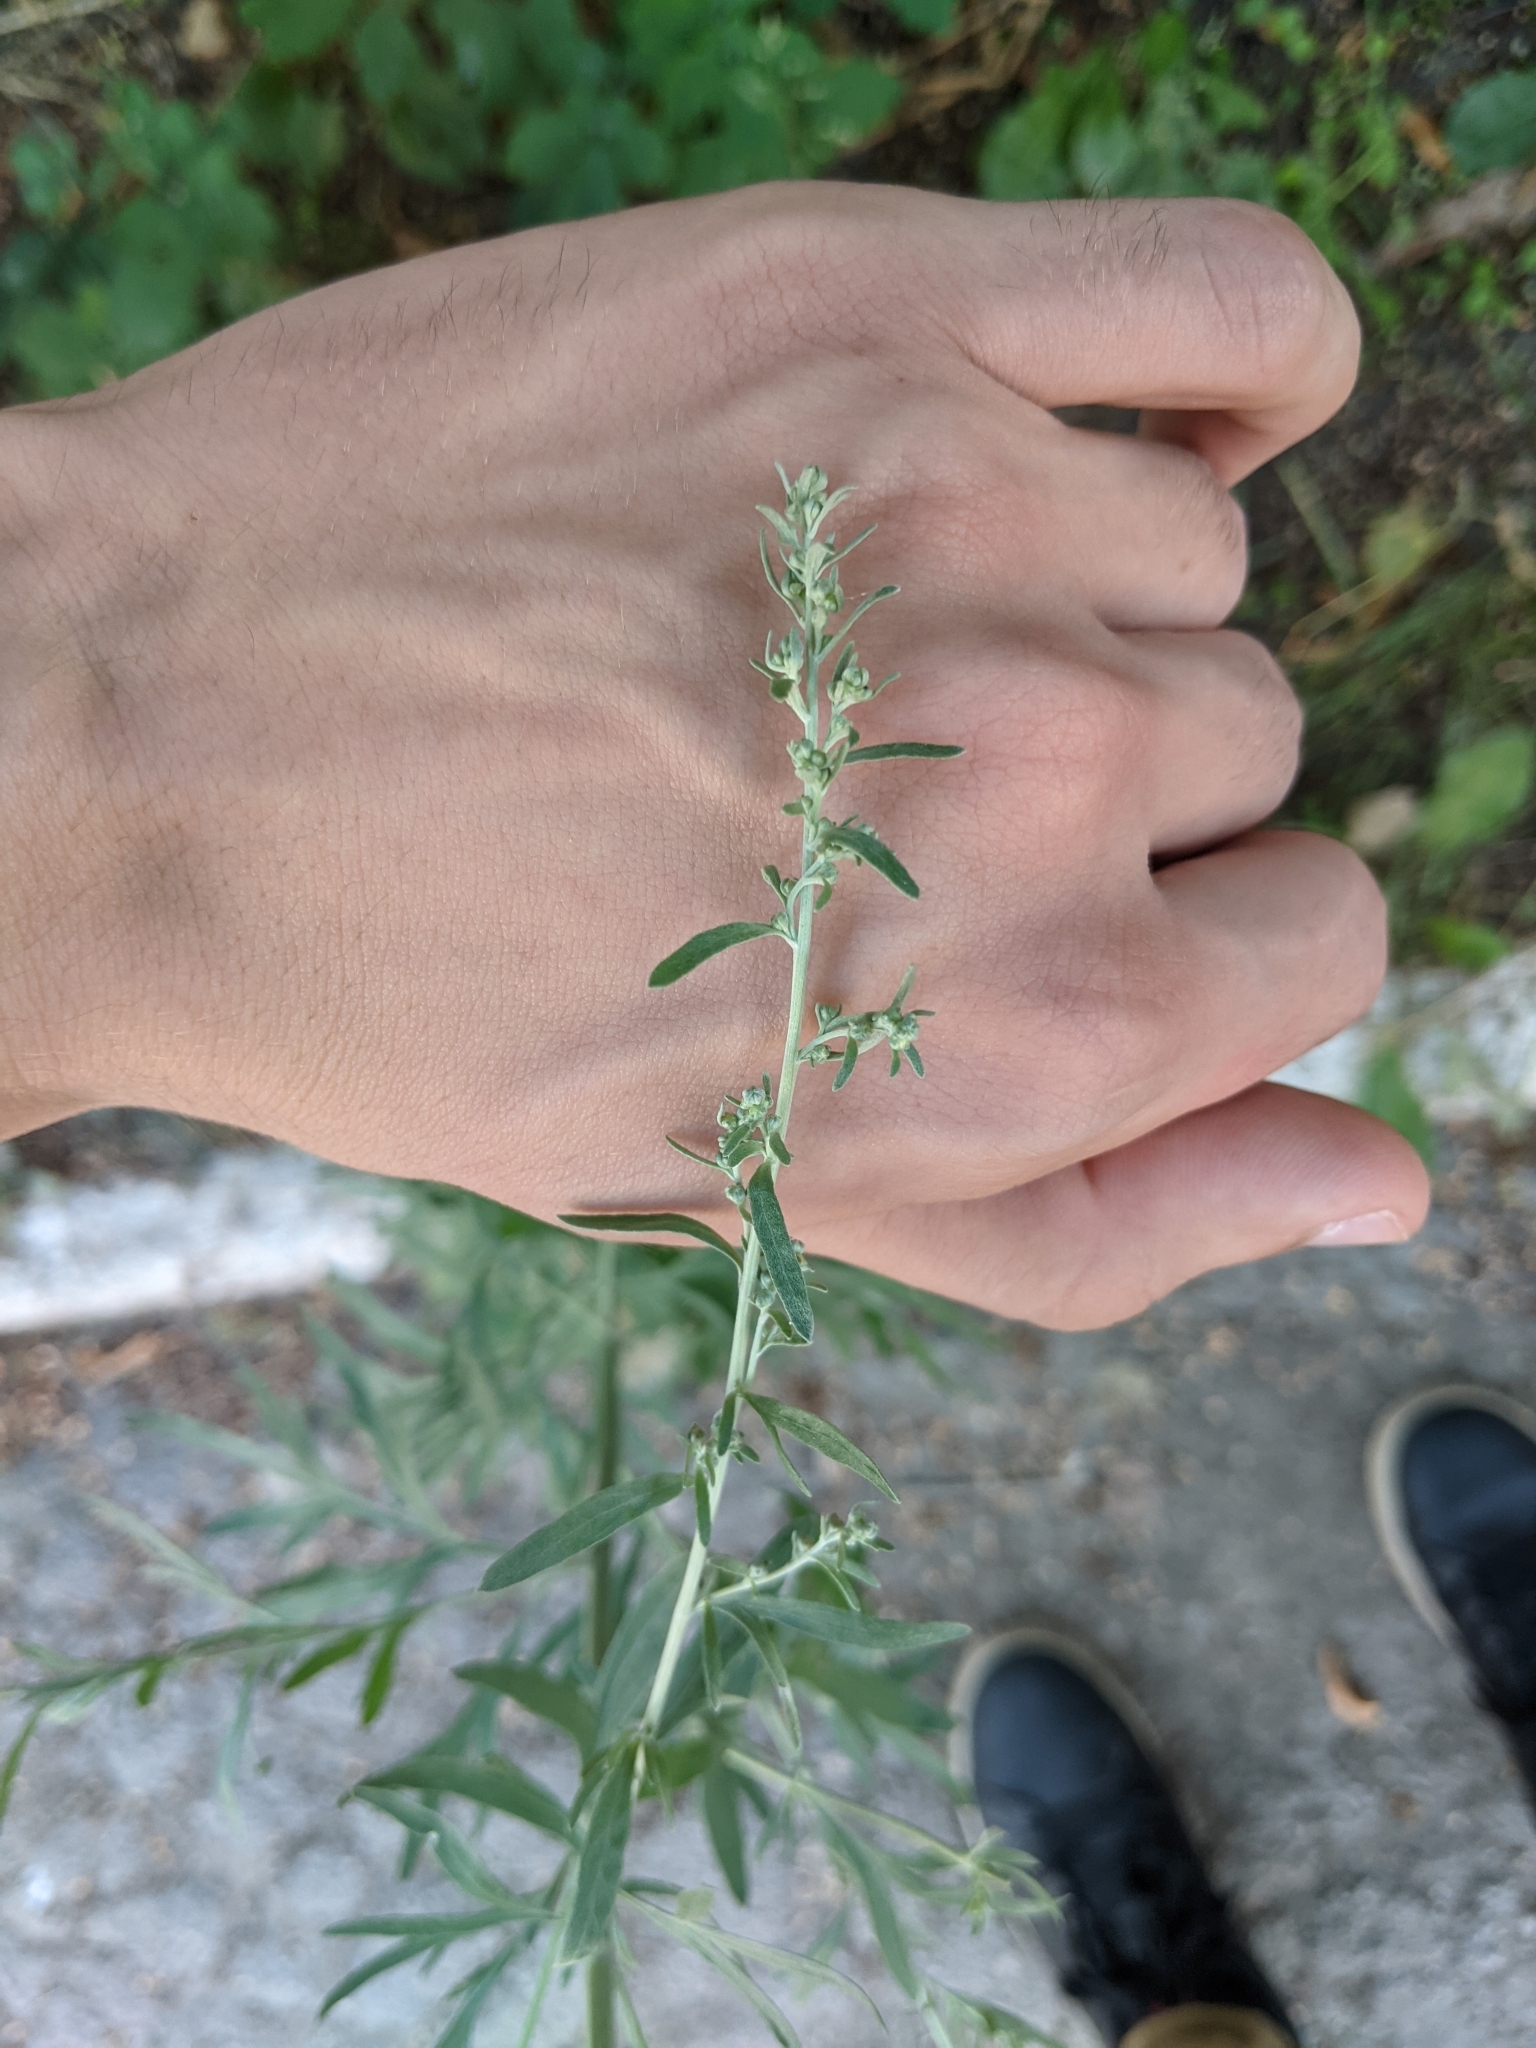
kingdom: Plantae
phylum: Tracheophyta
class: Magnoliopsida
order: Asterales
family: Asteraceae
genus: Artemisia
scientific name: Artemisia absinthium
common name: Wormwood
